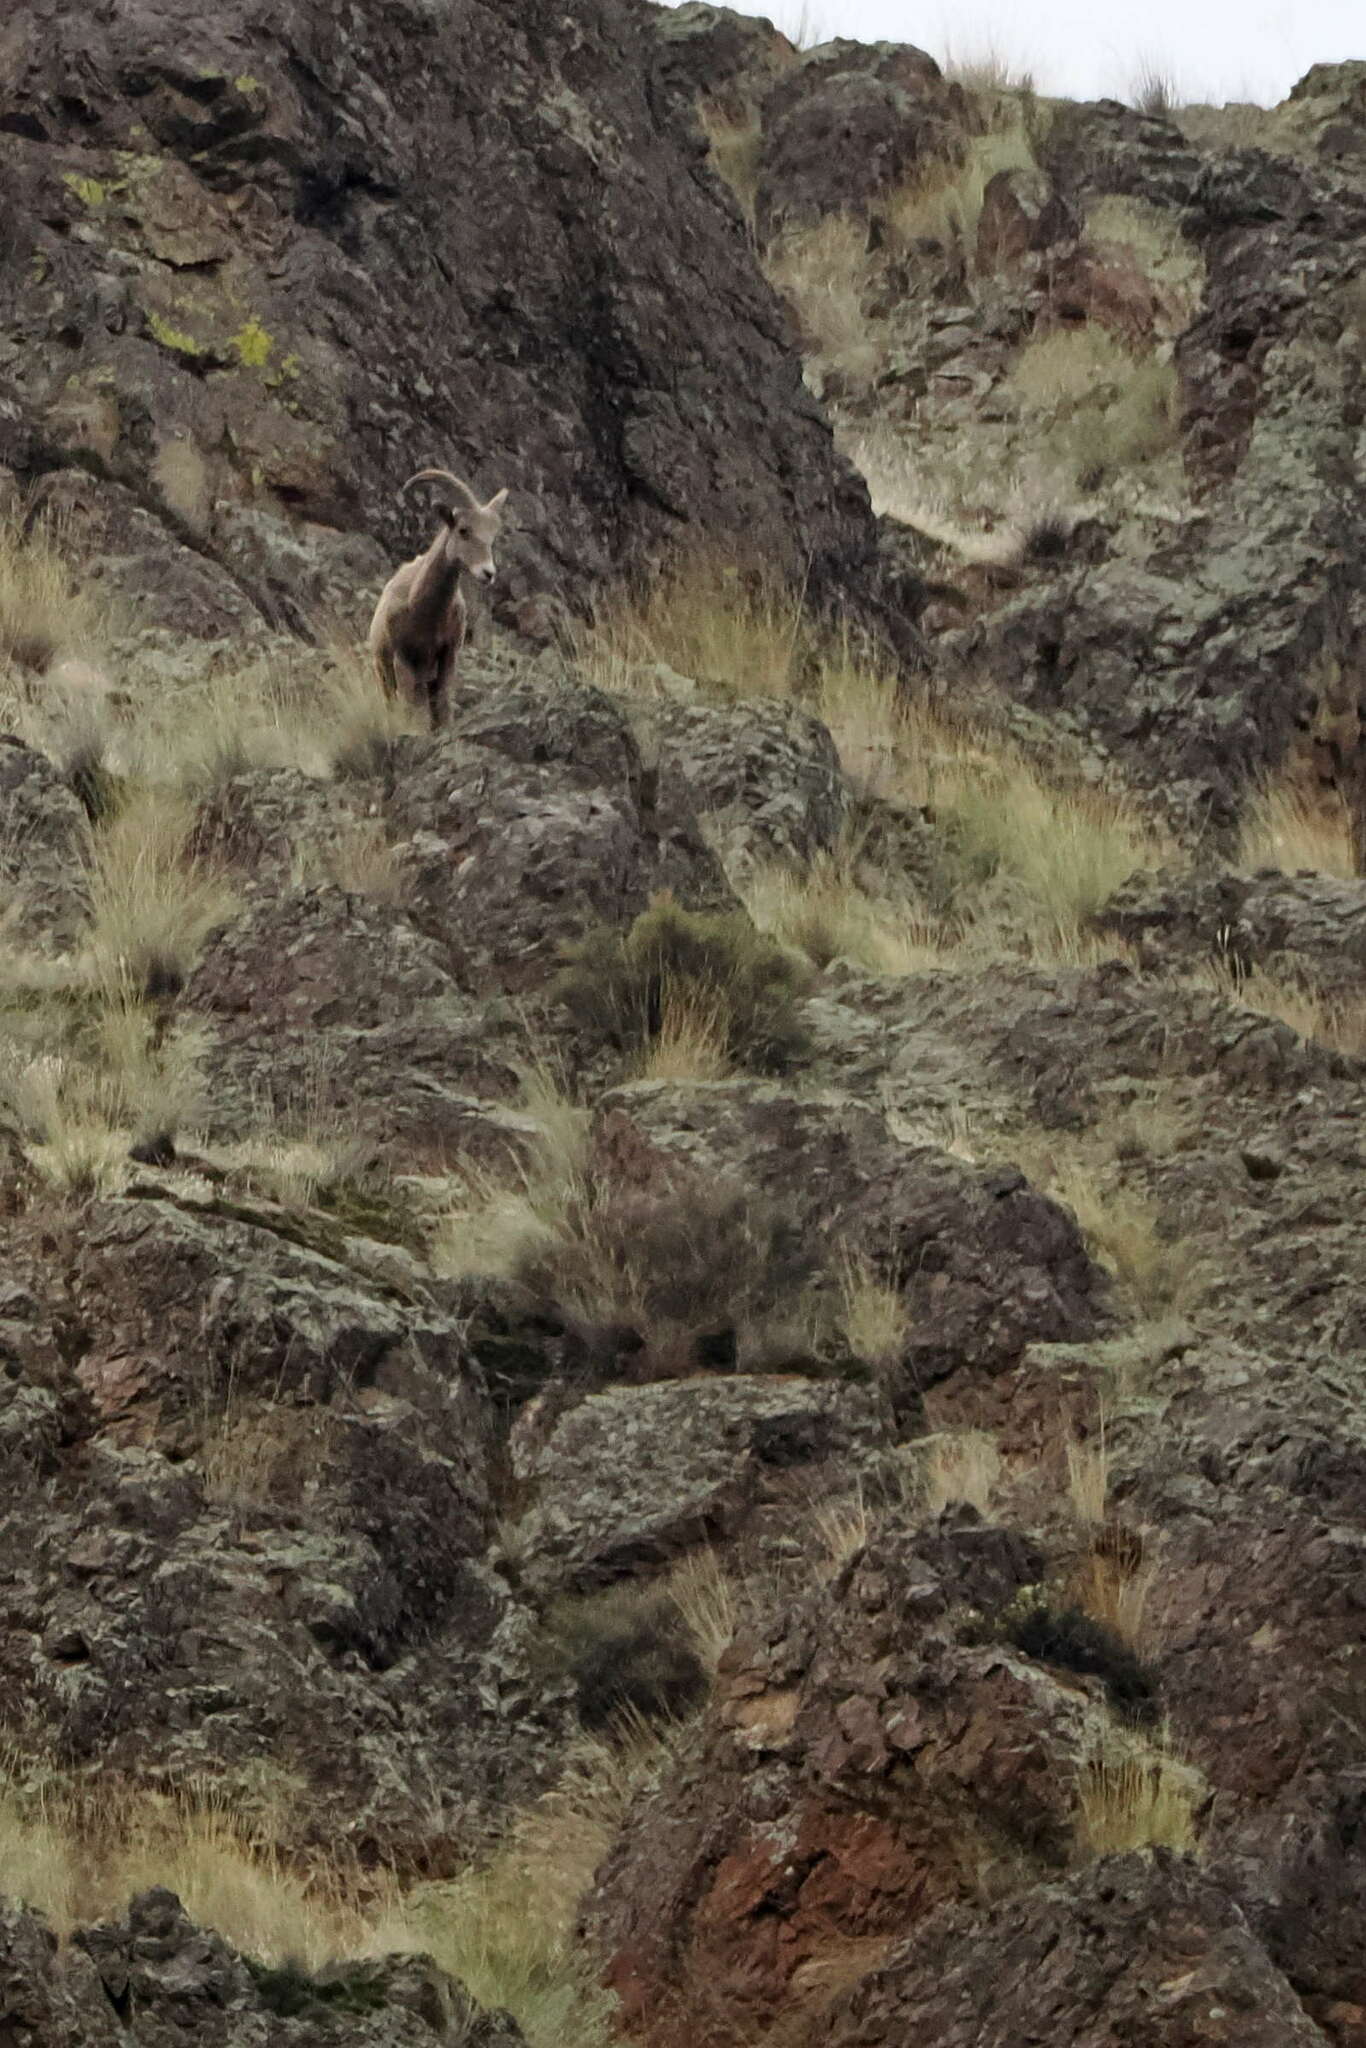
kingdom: Animalia
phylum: Chordata
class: Mammalia
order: Artiodactyla
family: Bovidae
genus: Ovis
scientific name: Ovis canadensis
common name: Bighorn sheep
